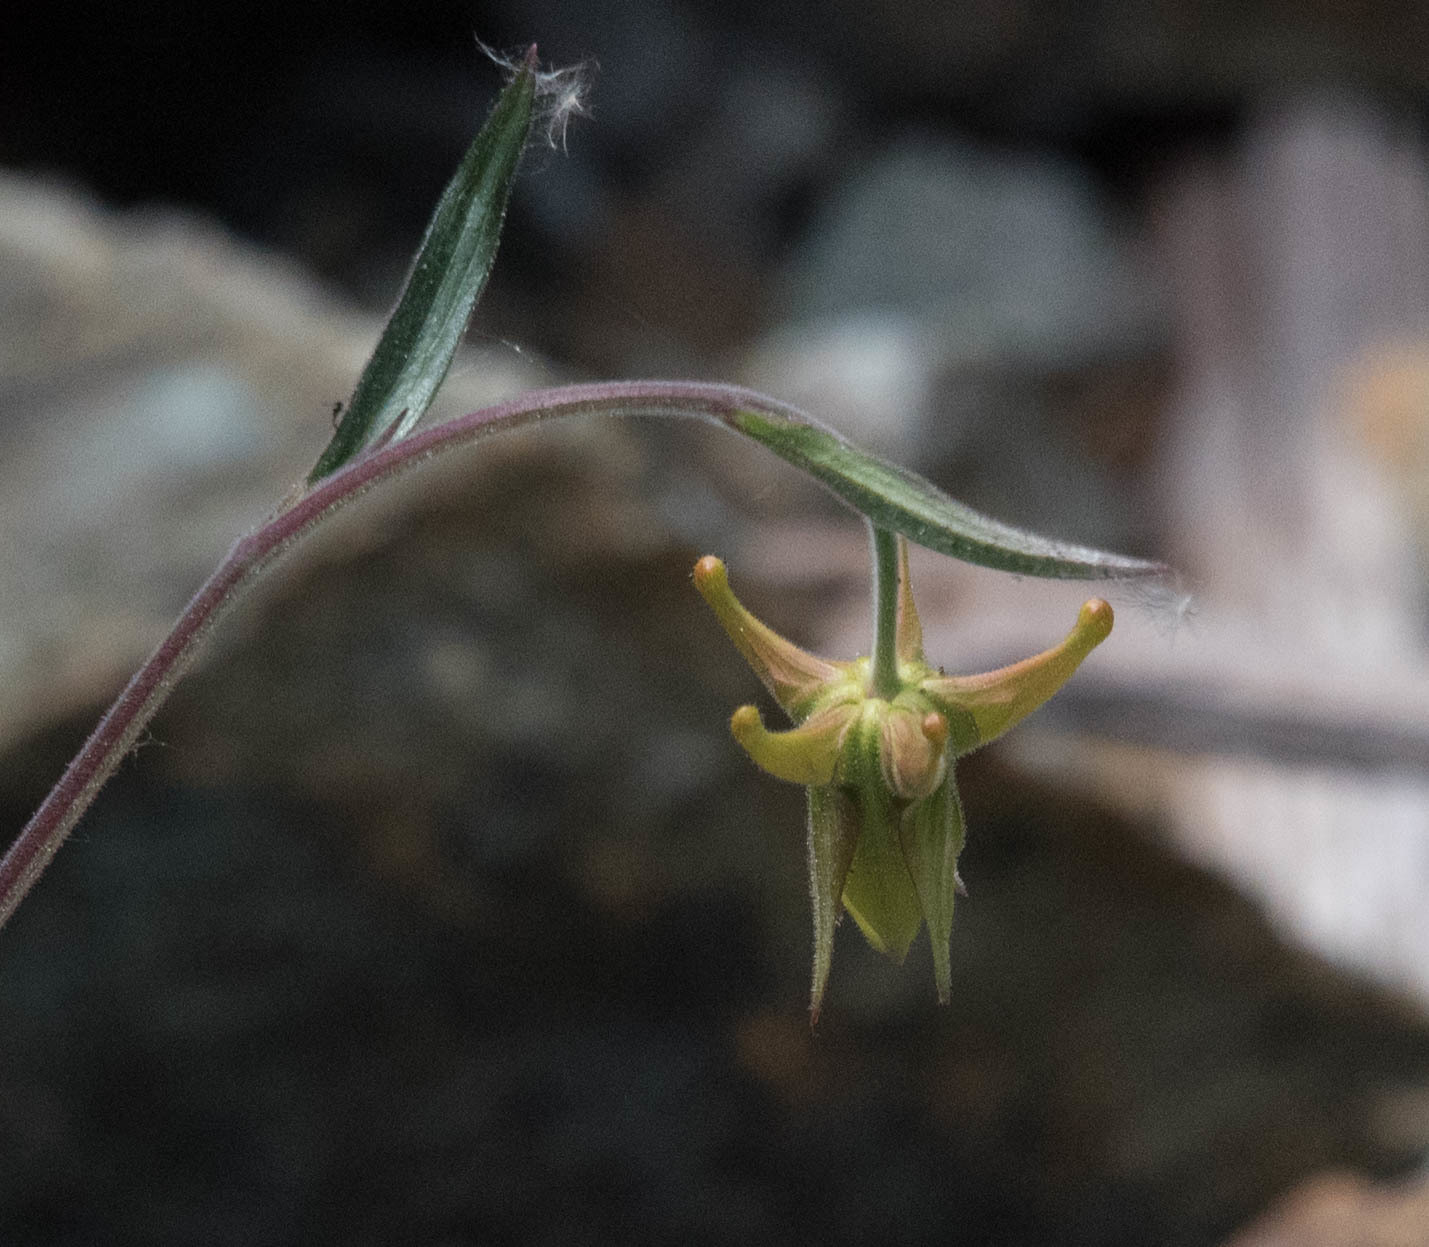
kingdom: Plantae
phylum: Tracheophyta
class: Magnoliopsida
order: Ranunculales
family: Ranunculaceae
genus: Aquilegia
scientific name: Aquilegia eximia
